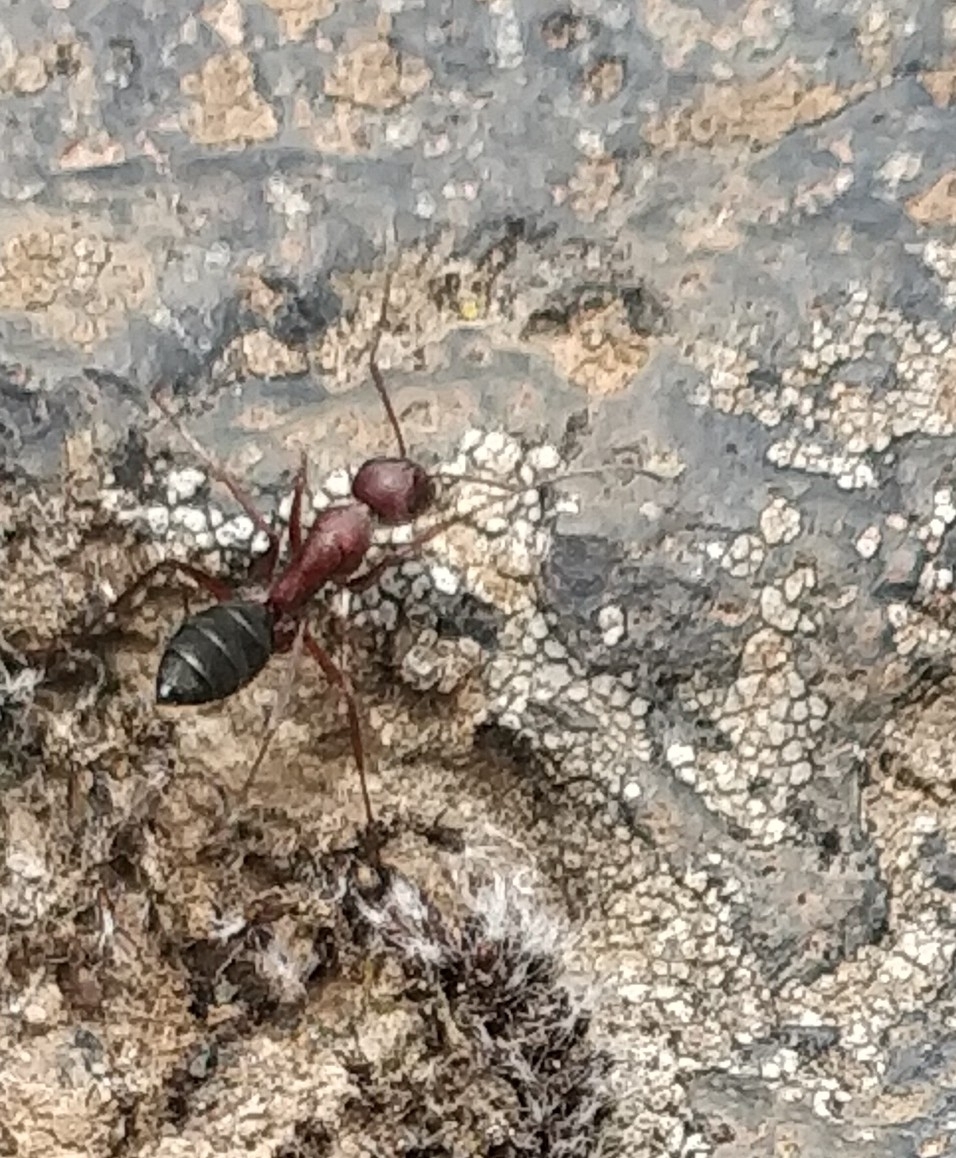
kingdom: Animalia
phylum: Arthropoda
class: Insecta
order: Hymenoptera
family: Formicidae
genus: Camponotus
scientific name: Camponotus feai
